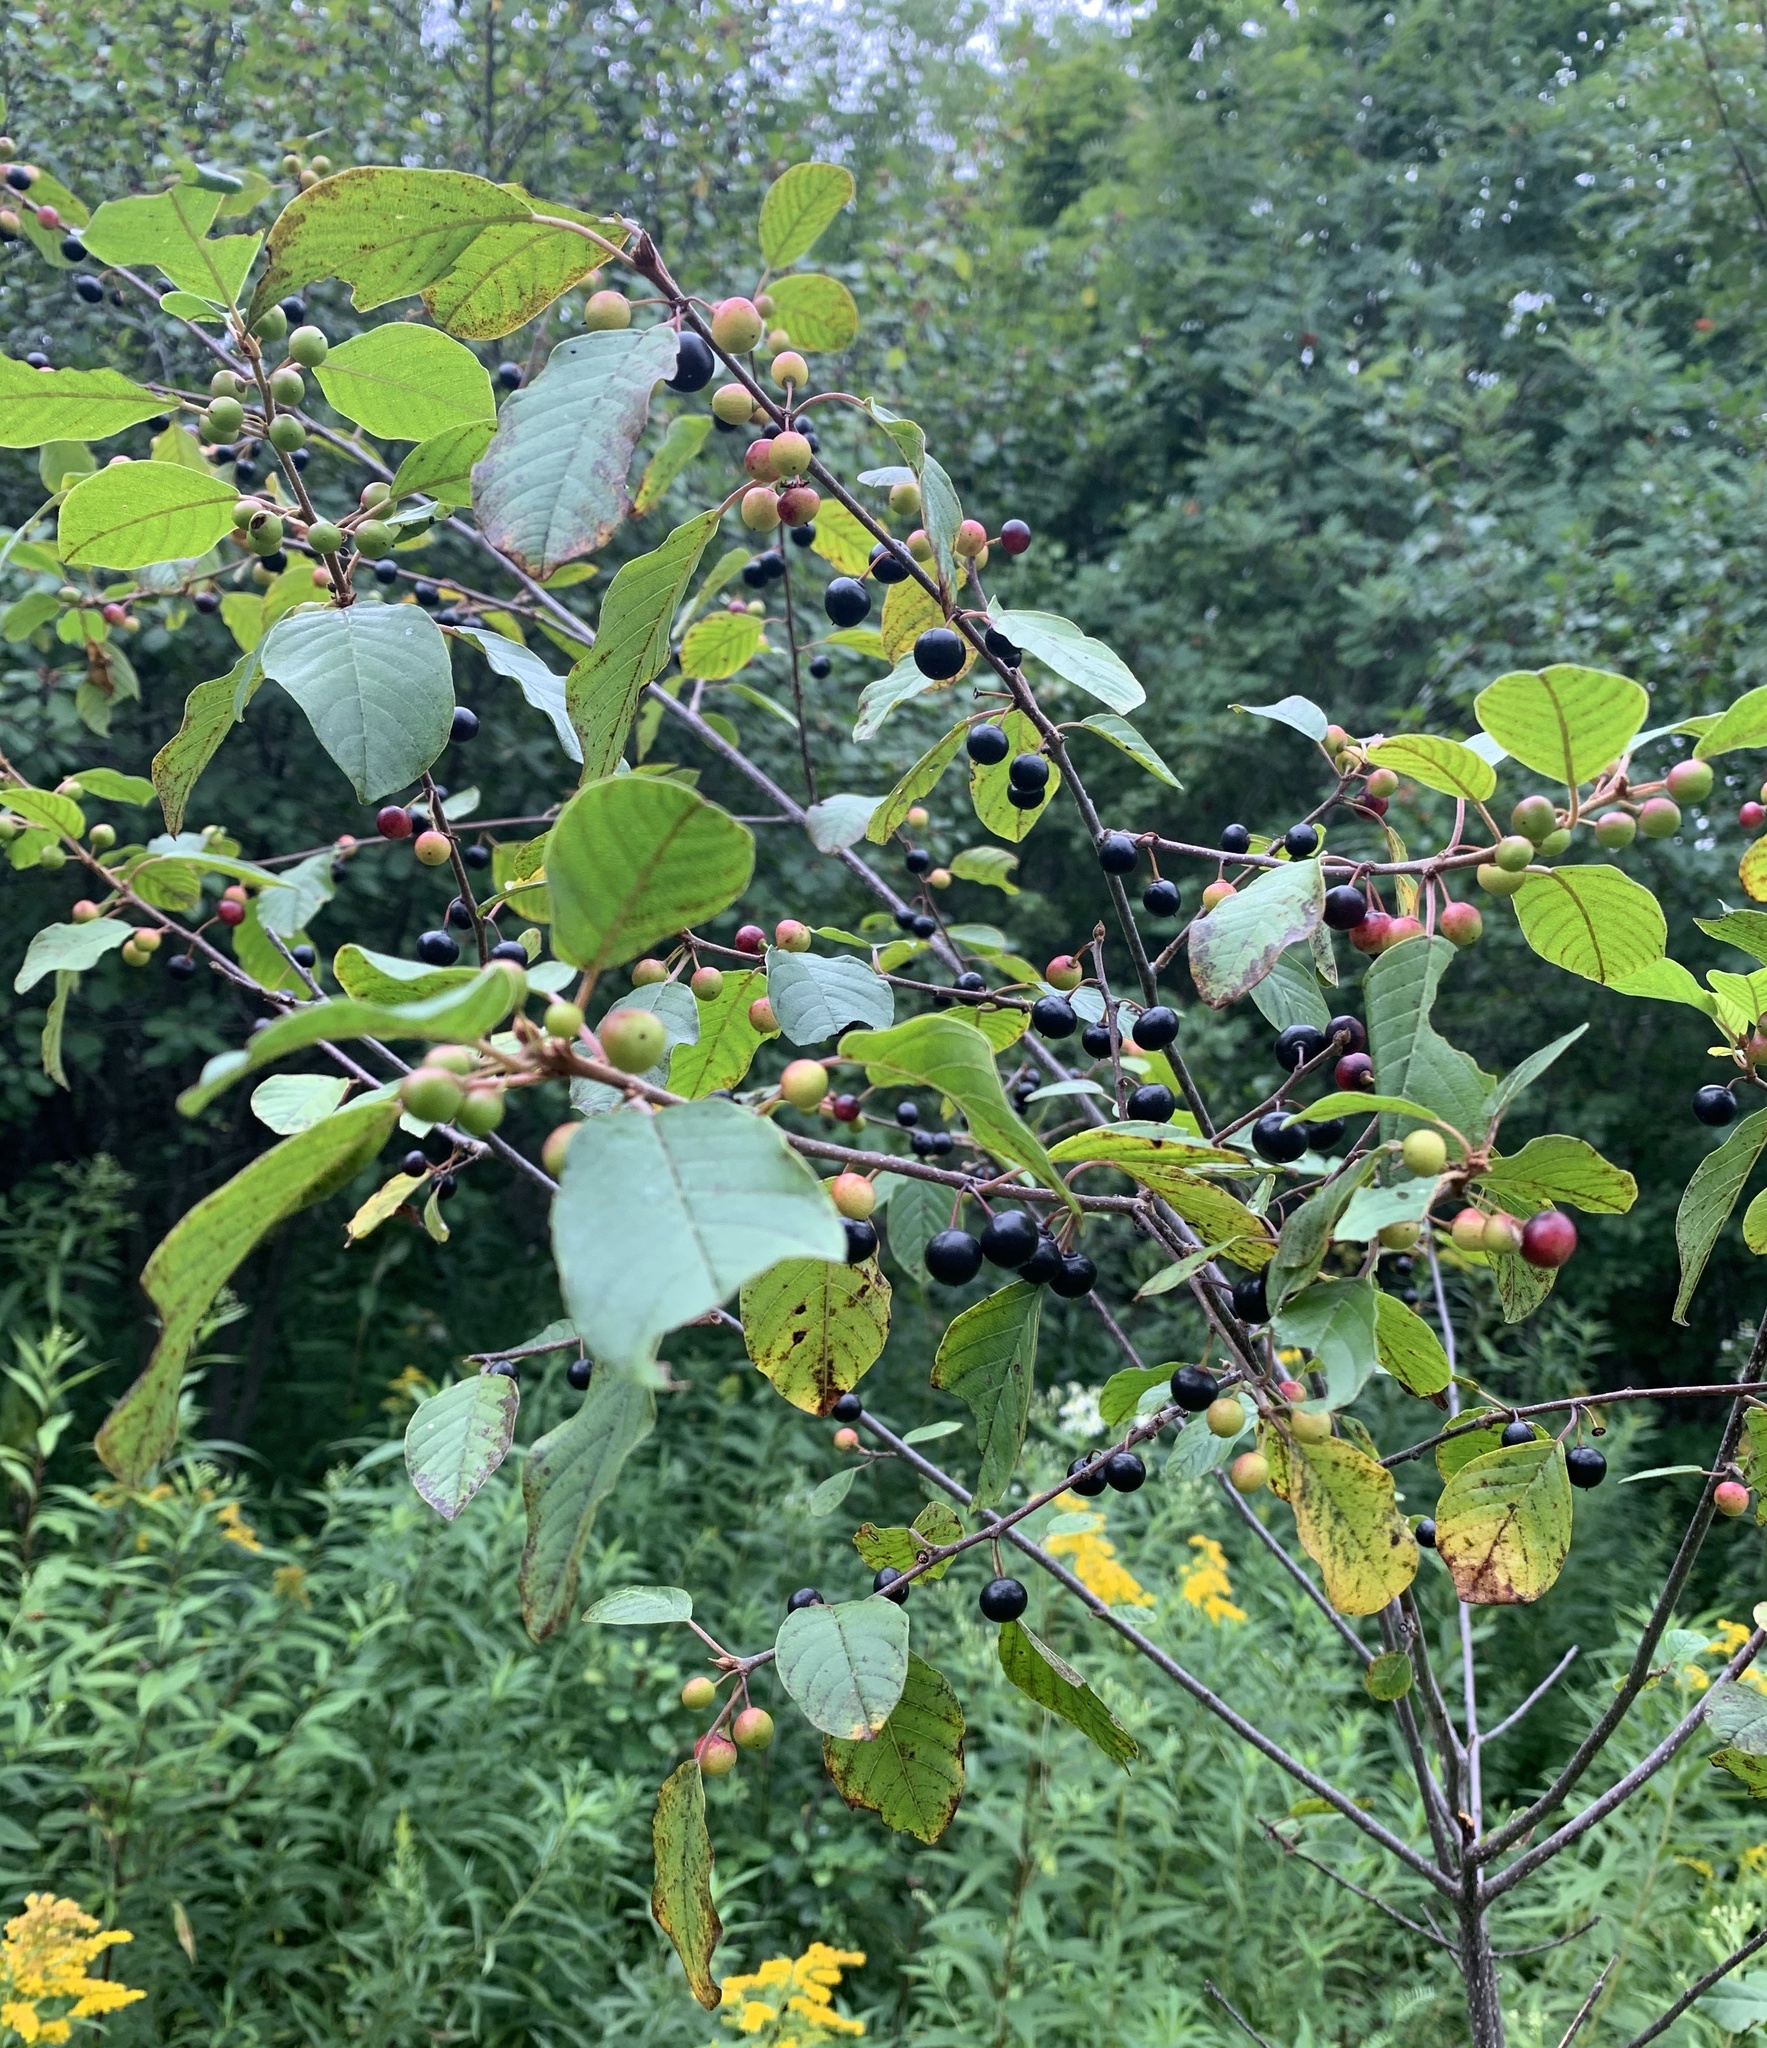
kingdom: Plantae
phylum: Tracheophyta
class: Magnoliopsida
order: Rosales
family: Rhamnaceae
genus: Frangula
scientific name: Frangula alnus
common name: Alder buckthorn
